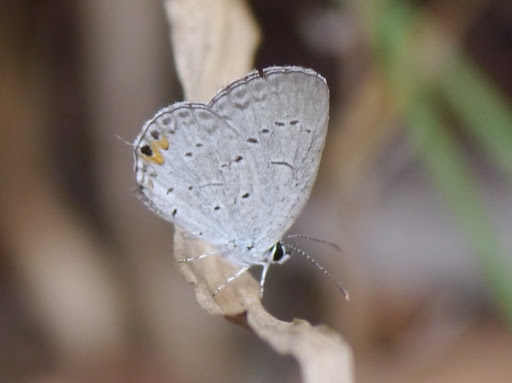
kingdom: Animalia
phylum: Arthropoda
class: Insecta
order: Lepidoptera
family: Lycaenidae
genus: Elkalyce
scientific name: Elkalyce comyntas
